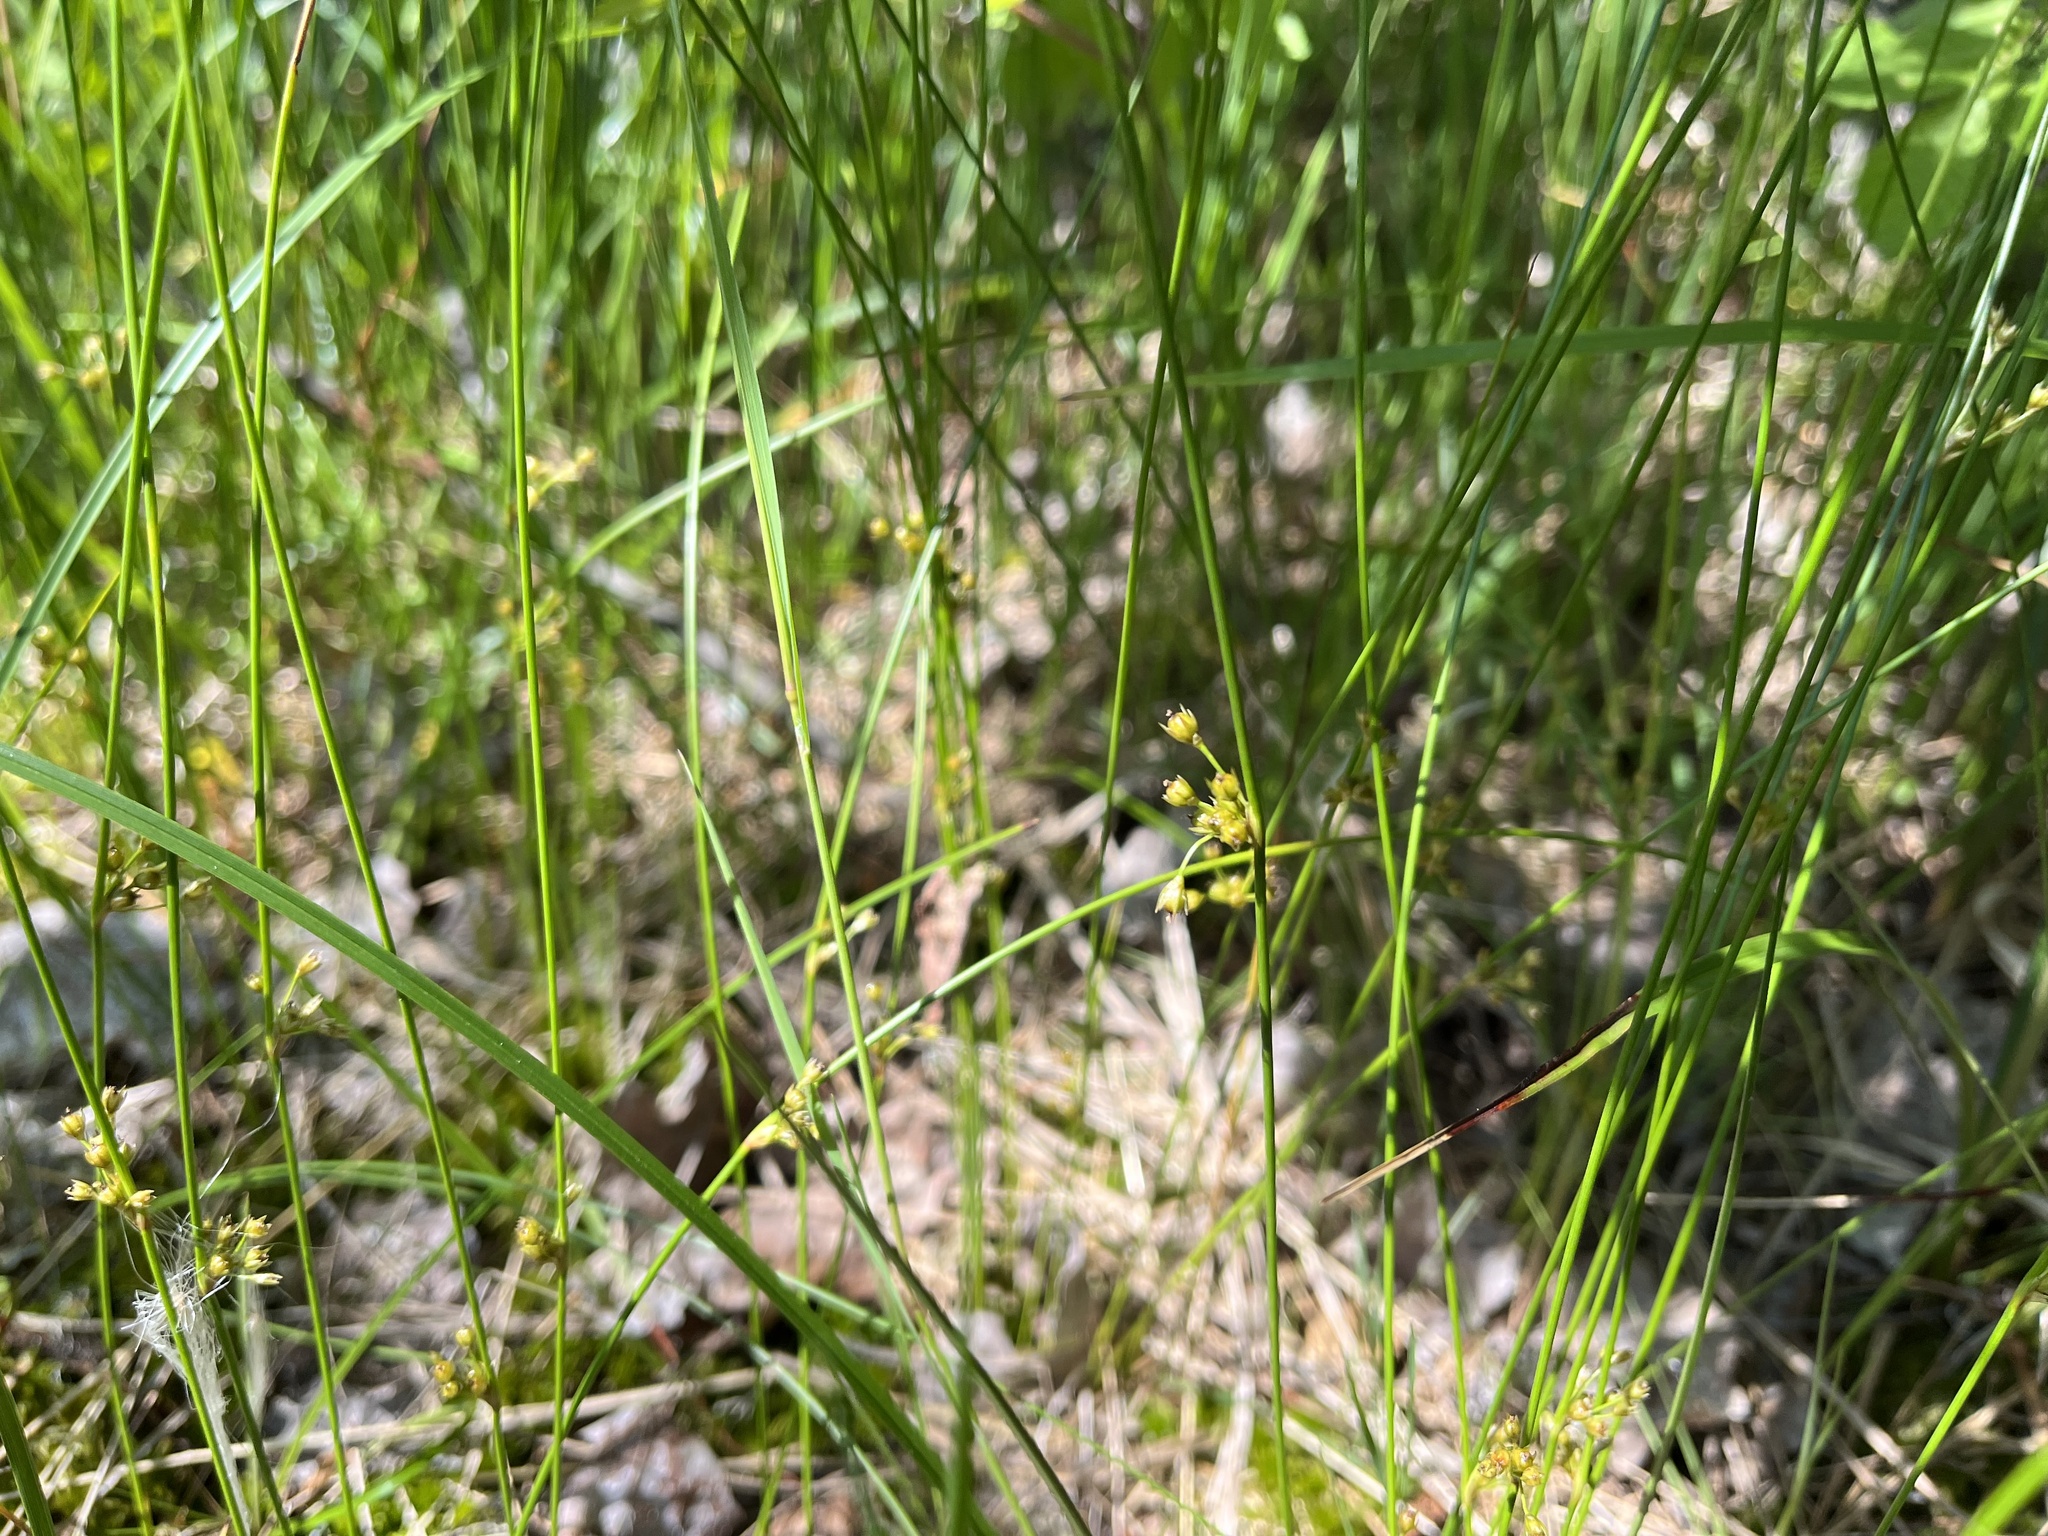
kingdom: Plantae
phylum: Tracheophyta
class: Liliopsida
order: Poales
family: Juncaceae
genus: Juncus
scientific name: Juncus filiformis
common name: Thread rush
